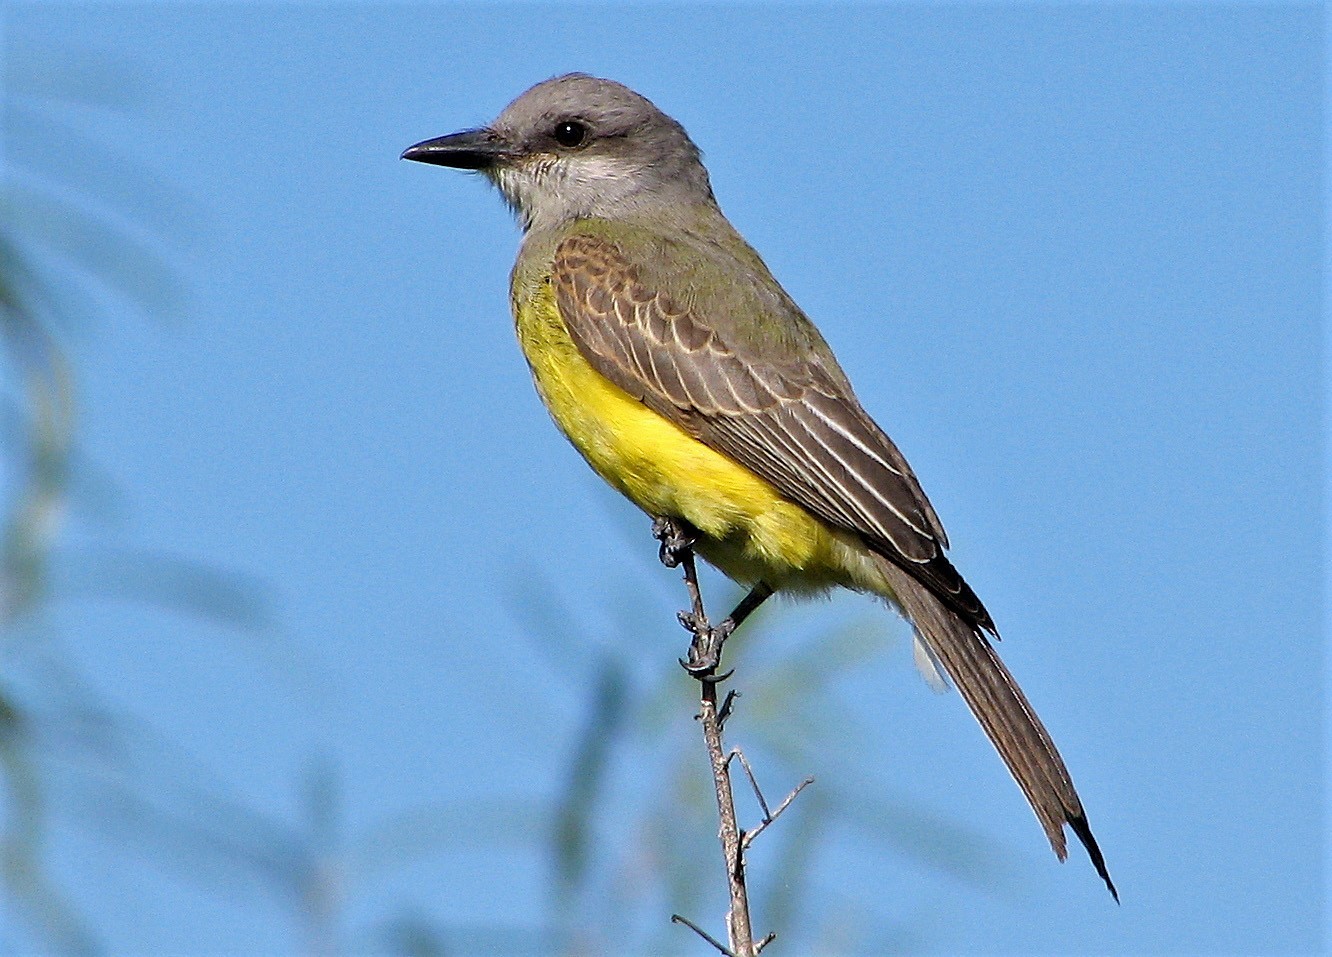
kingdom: Animalia
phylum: Chordata
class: Aves
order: Passeriformes
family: Tyrannidae
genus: Tyrannus
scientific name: Tyrannus melancholicus
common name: Tropical kingbird
